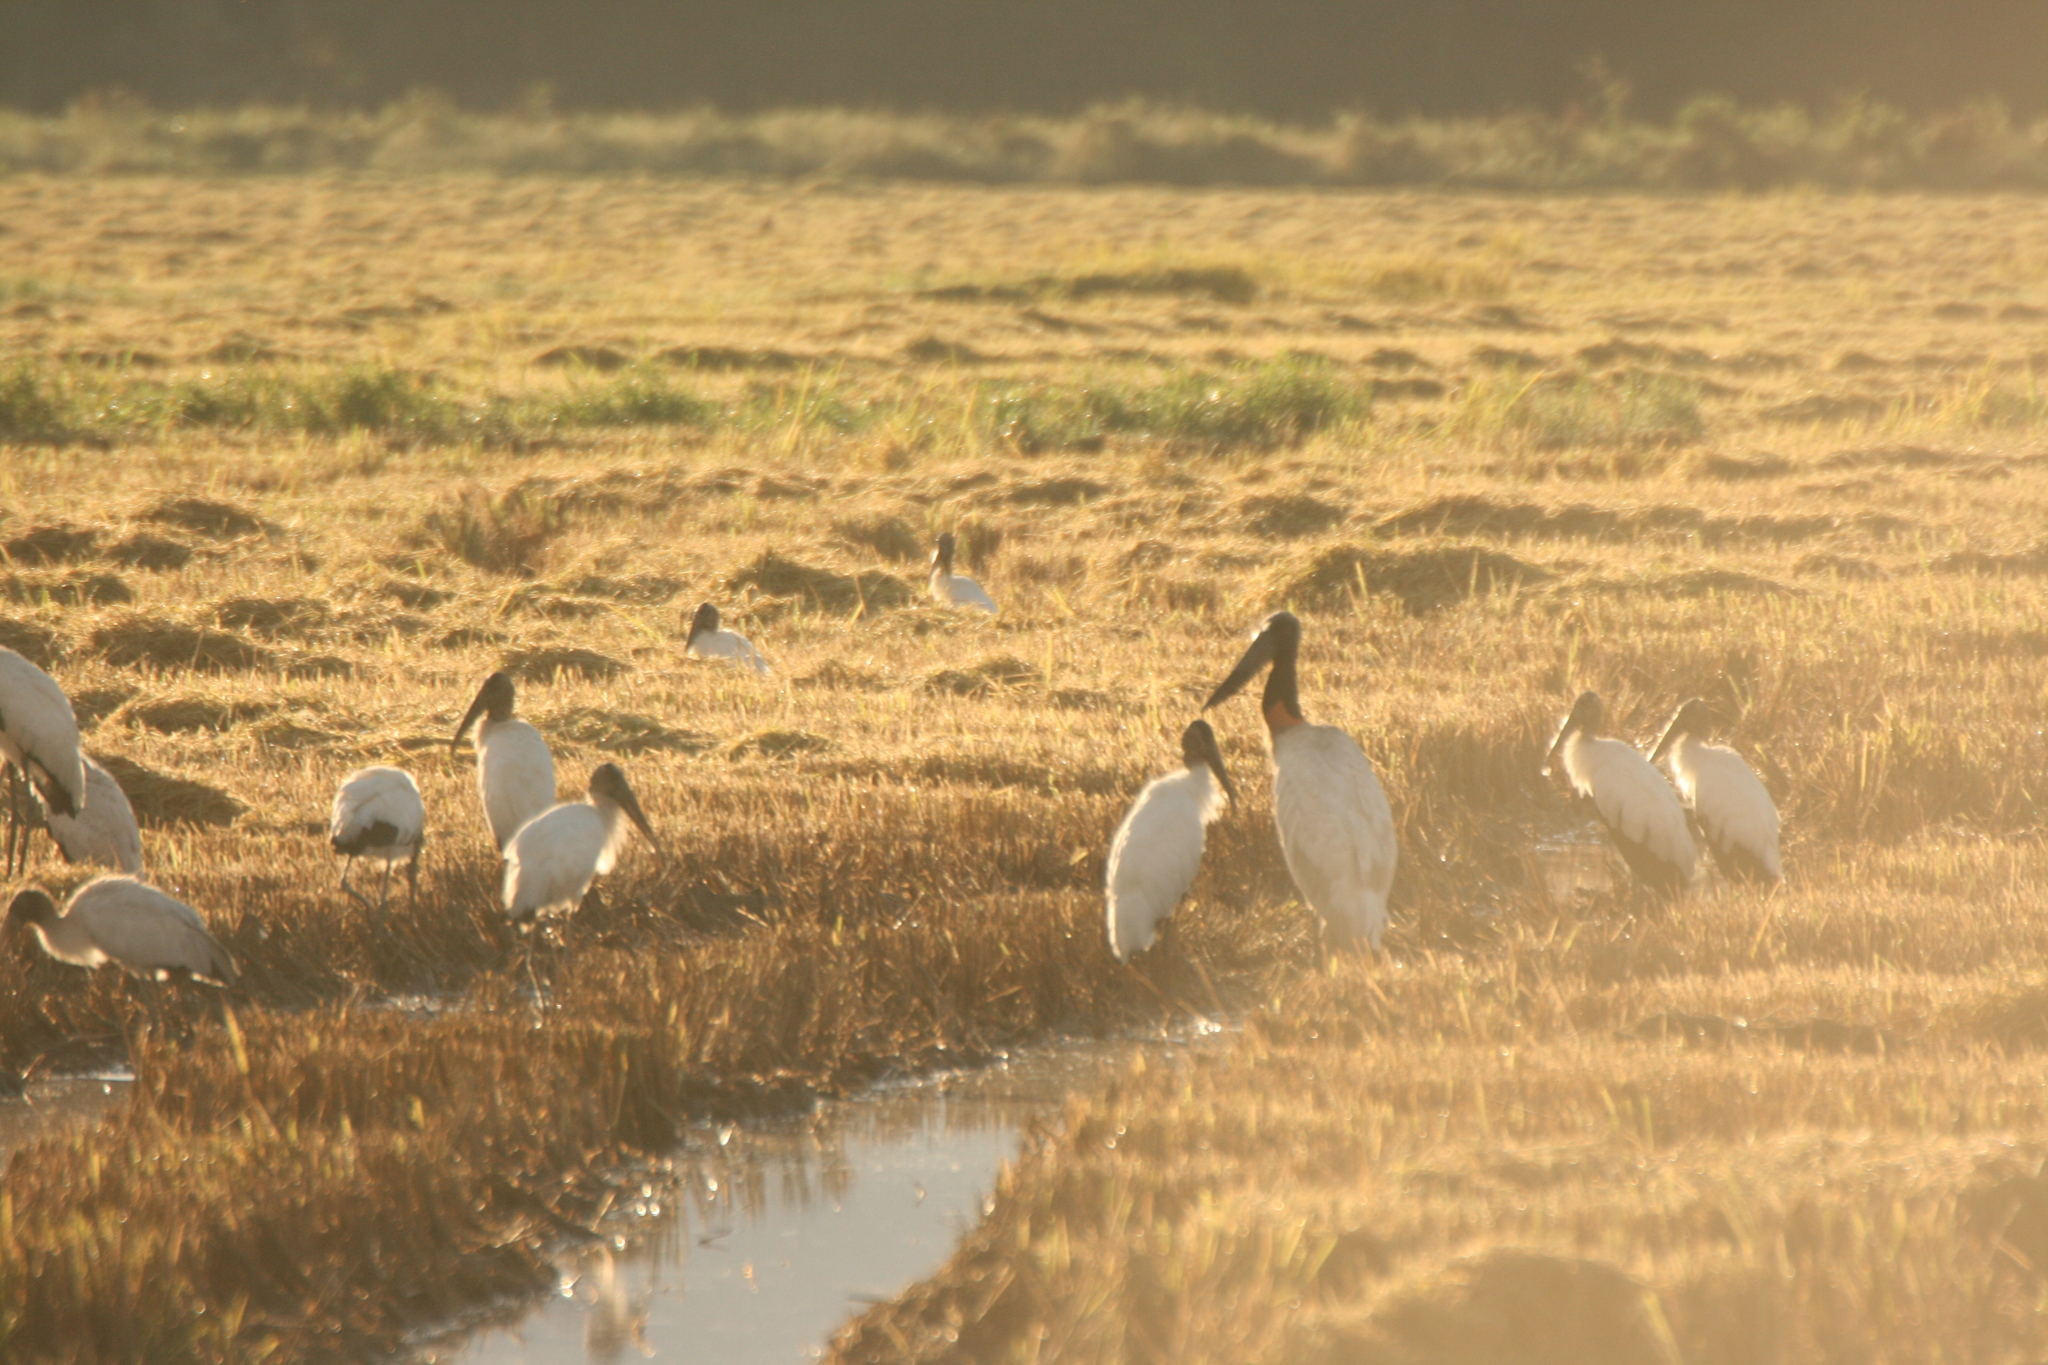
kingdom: Animalia
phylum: Chordata
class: Aves
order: Ciconiiformes
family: Ciconiidae
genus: Mycteria
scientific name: Mycteria americana
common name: Wood stork
